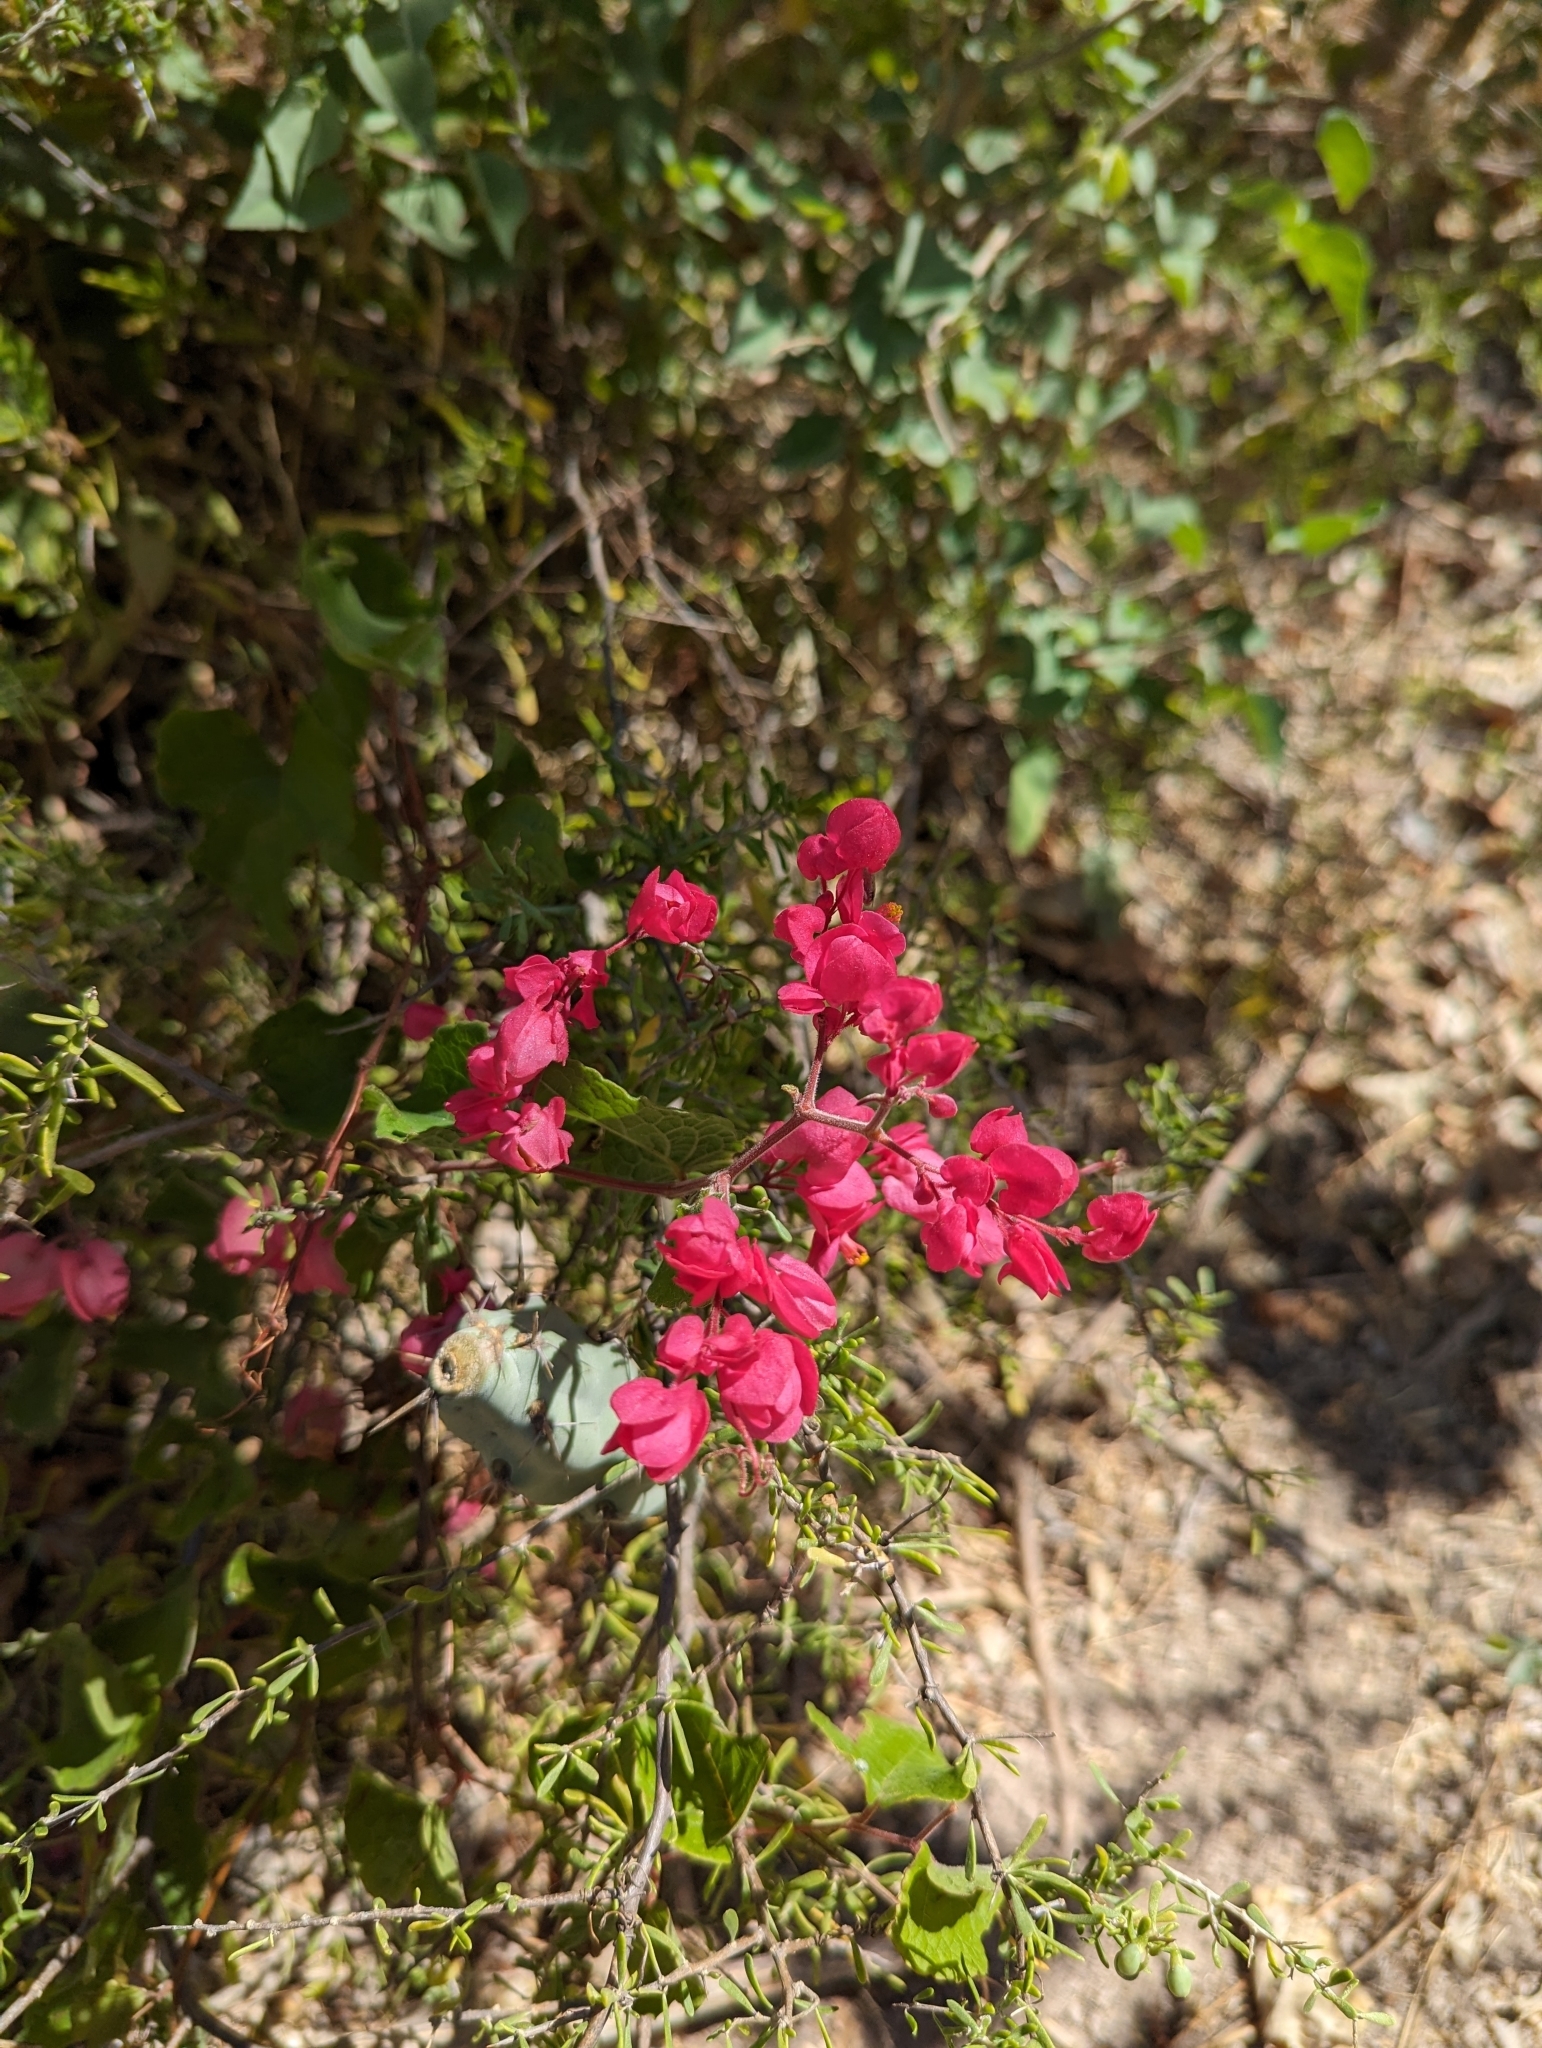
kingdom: Plantae
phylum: Tracheophyta
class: Magnoliopsida
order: Caryophyllales
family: Polygonaceae
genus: Antigonon
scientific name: Antigonon leptopus
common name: Coral vine
